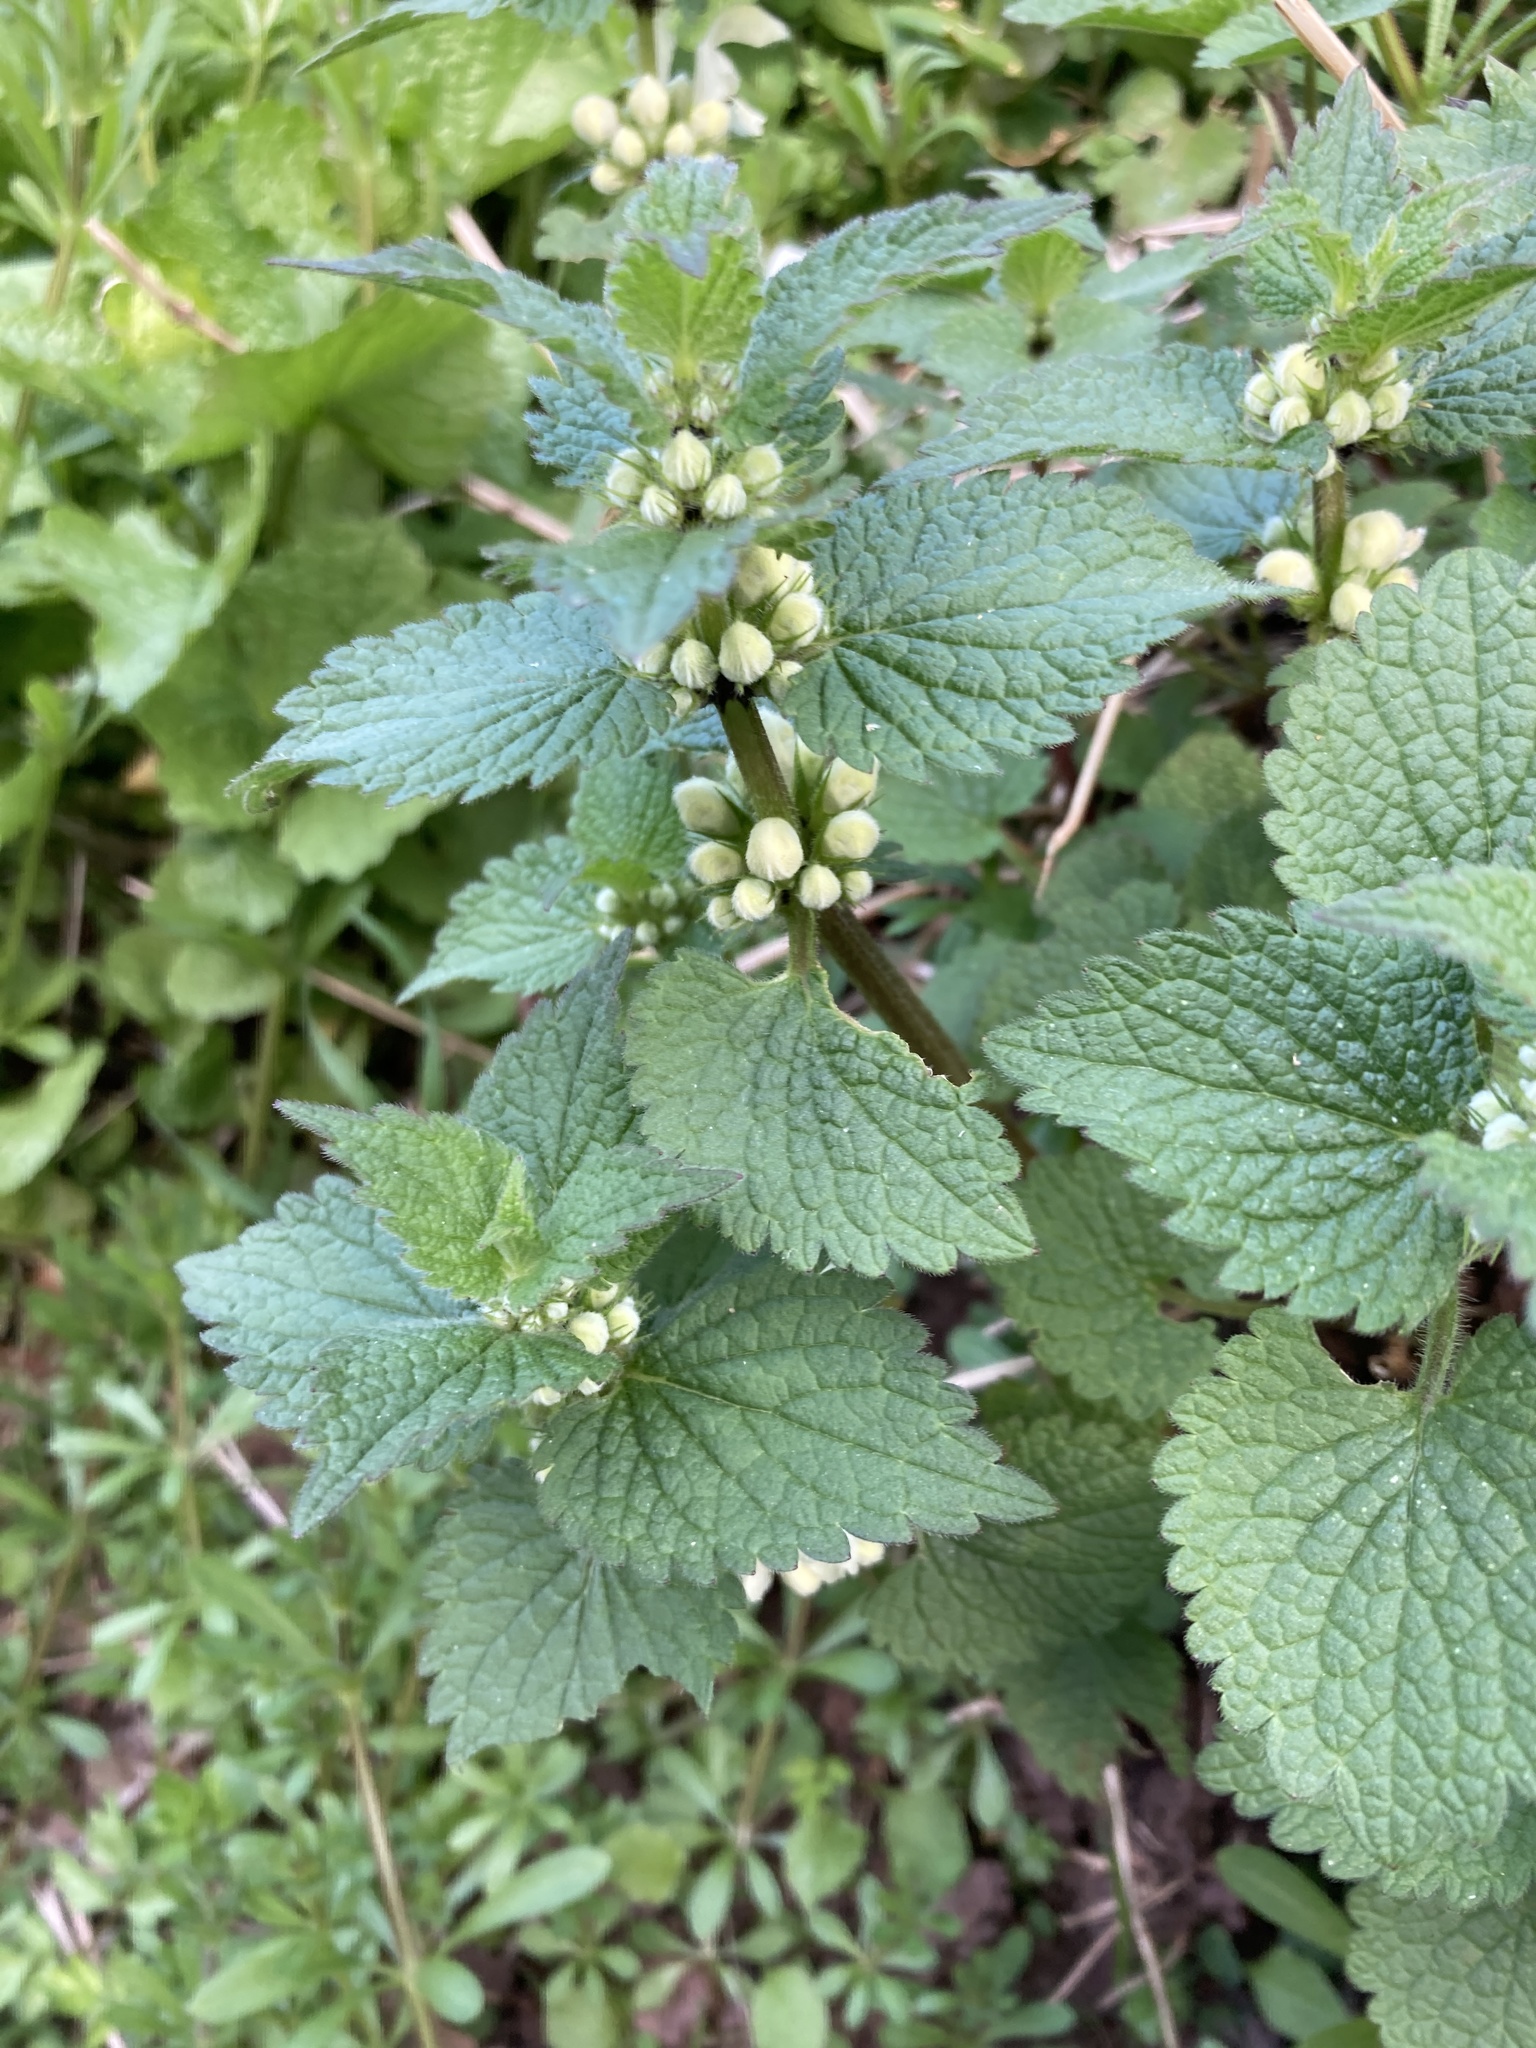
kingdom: Plantae
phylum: Tracheophyta
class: Magnoliopsida
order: Lamiales
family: Lamiaceae
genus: Lamium
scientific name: Lamium album
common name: White dead-nettle
